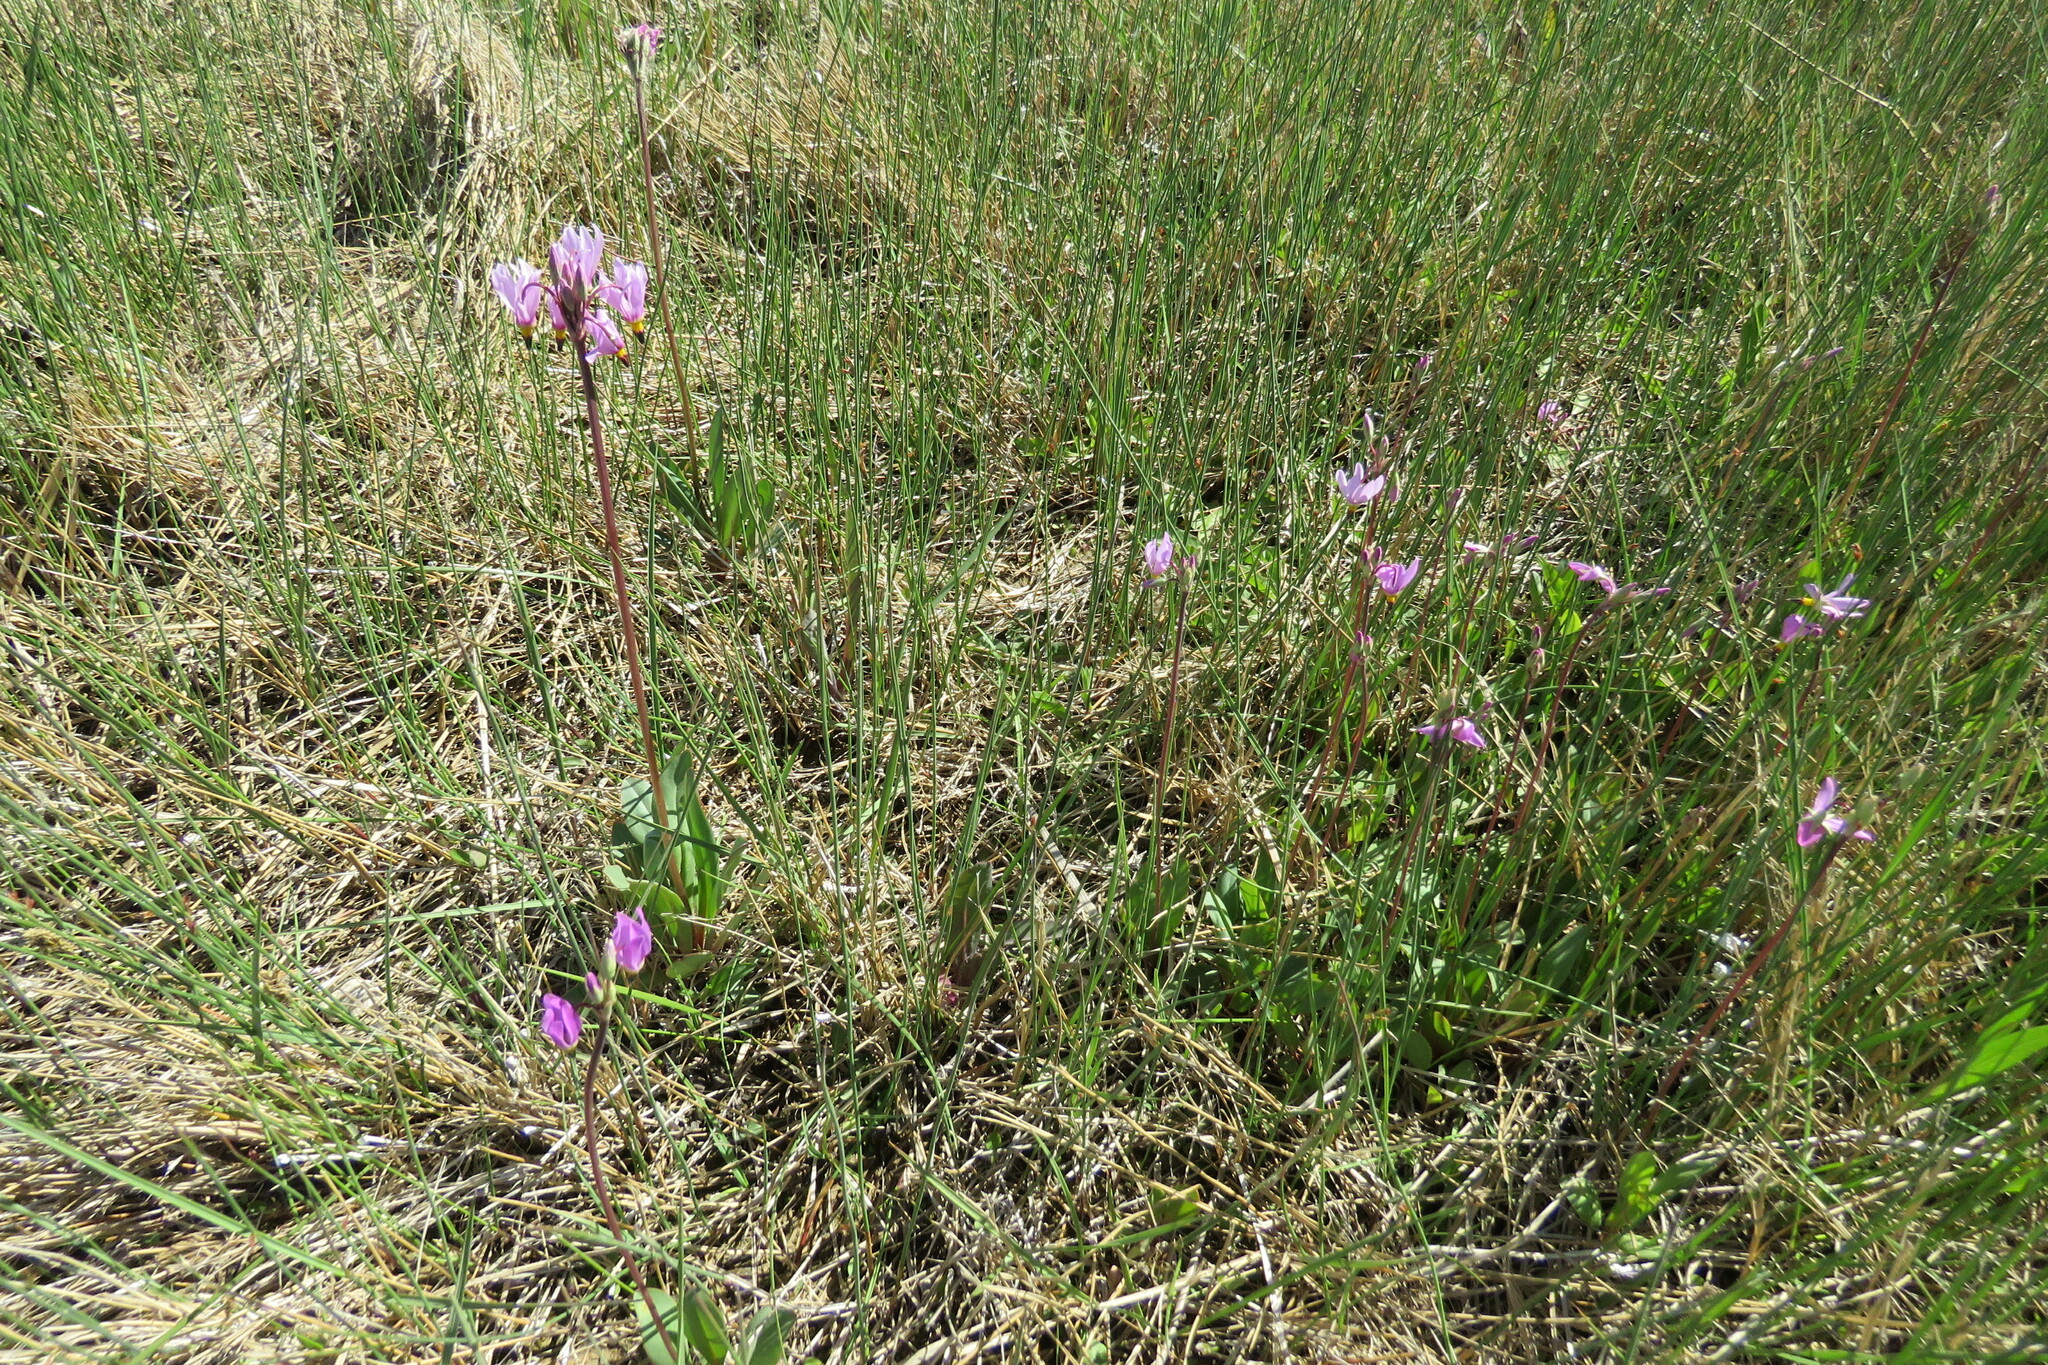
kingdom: Plantae
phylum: Tracheophyta
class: Magnoliopsida
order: Ericales
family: Primulaceae
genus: Dodecatheon
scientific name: Dodecatheon pulchellum
